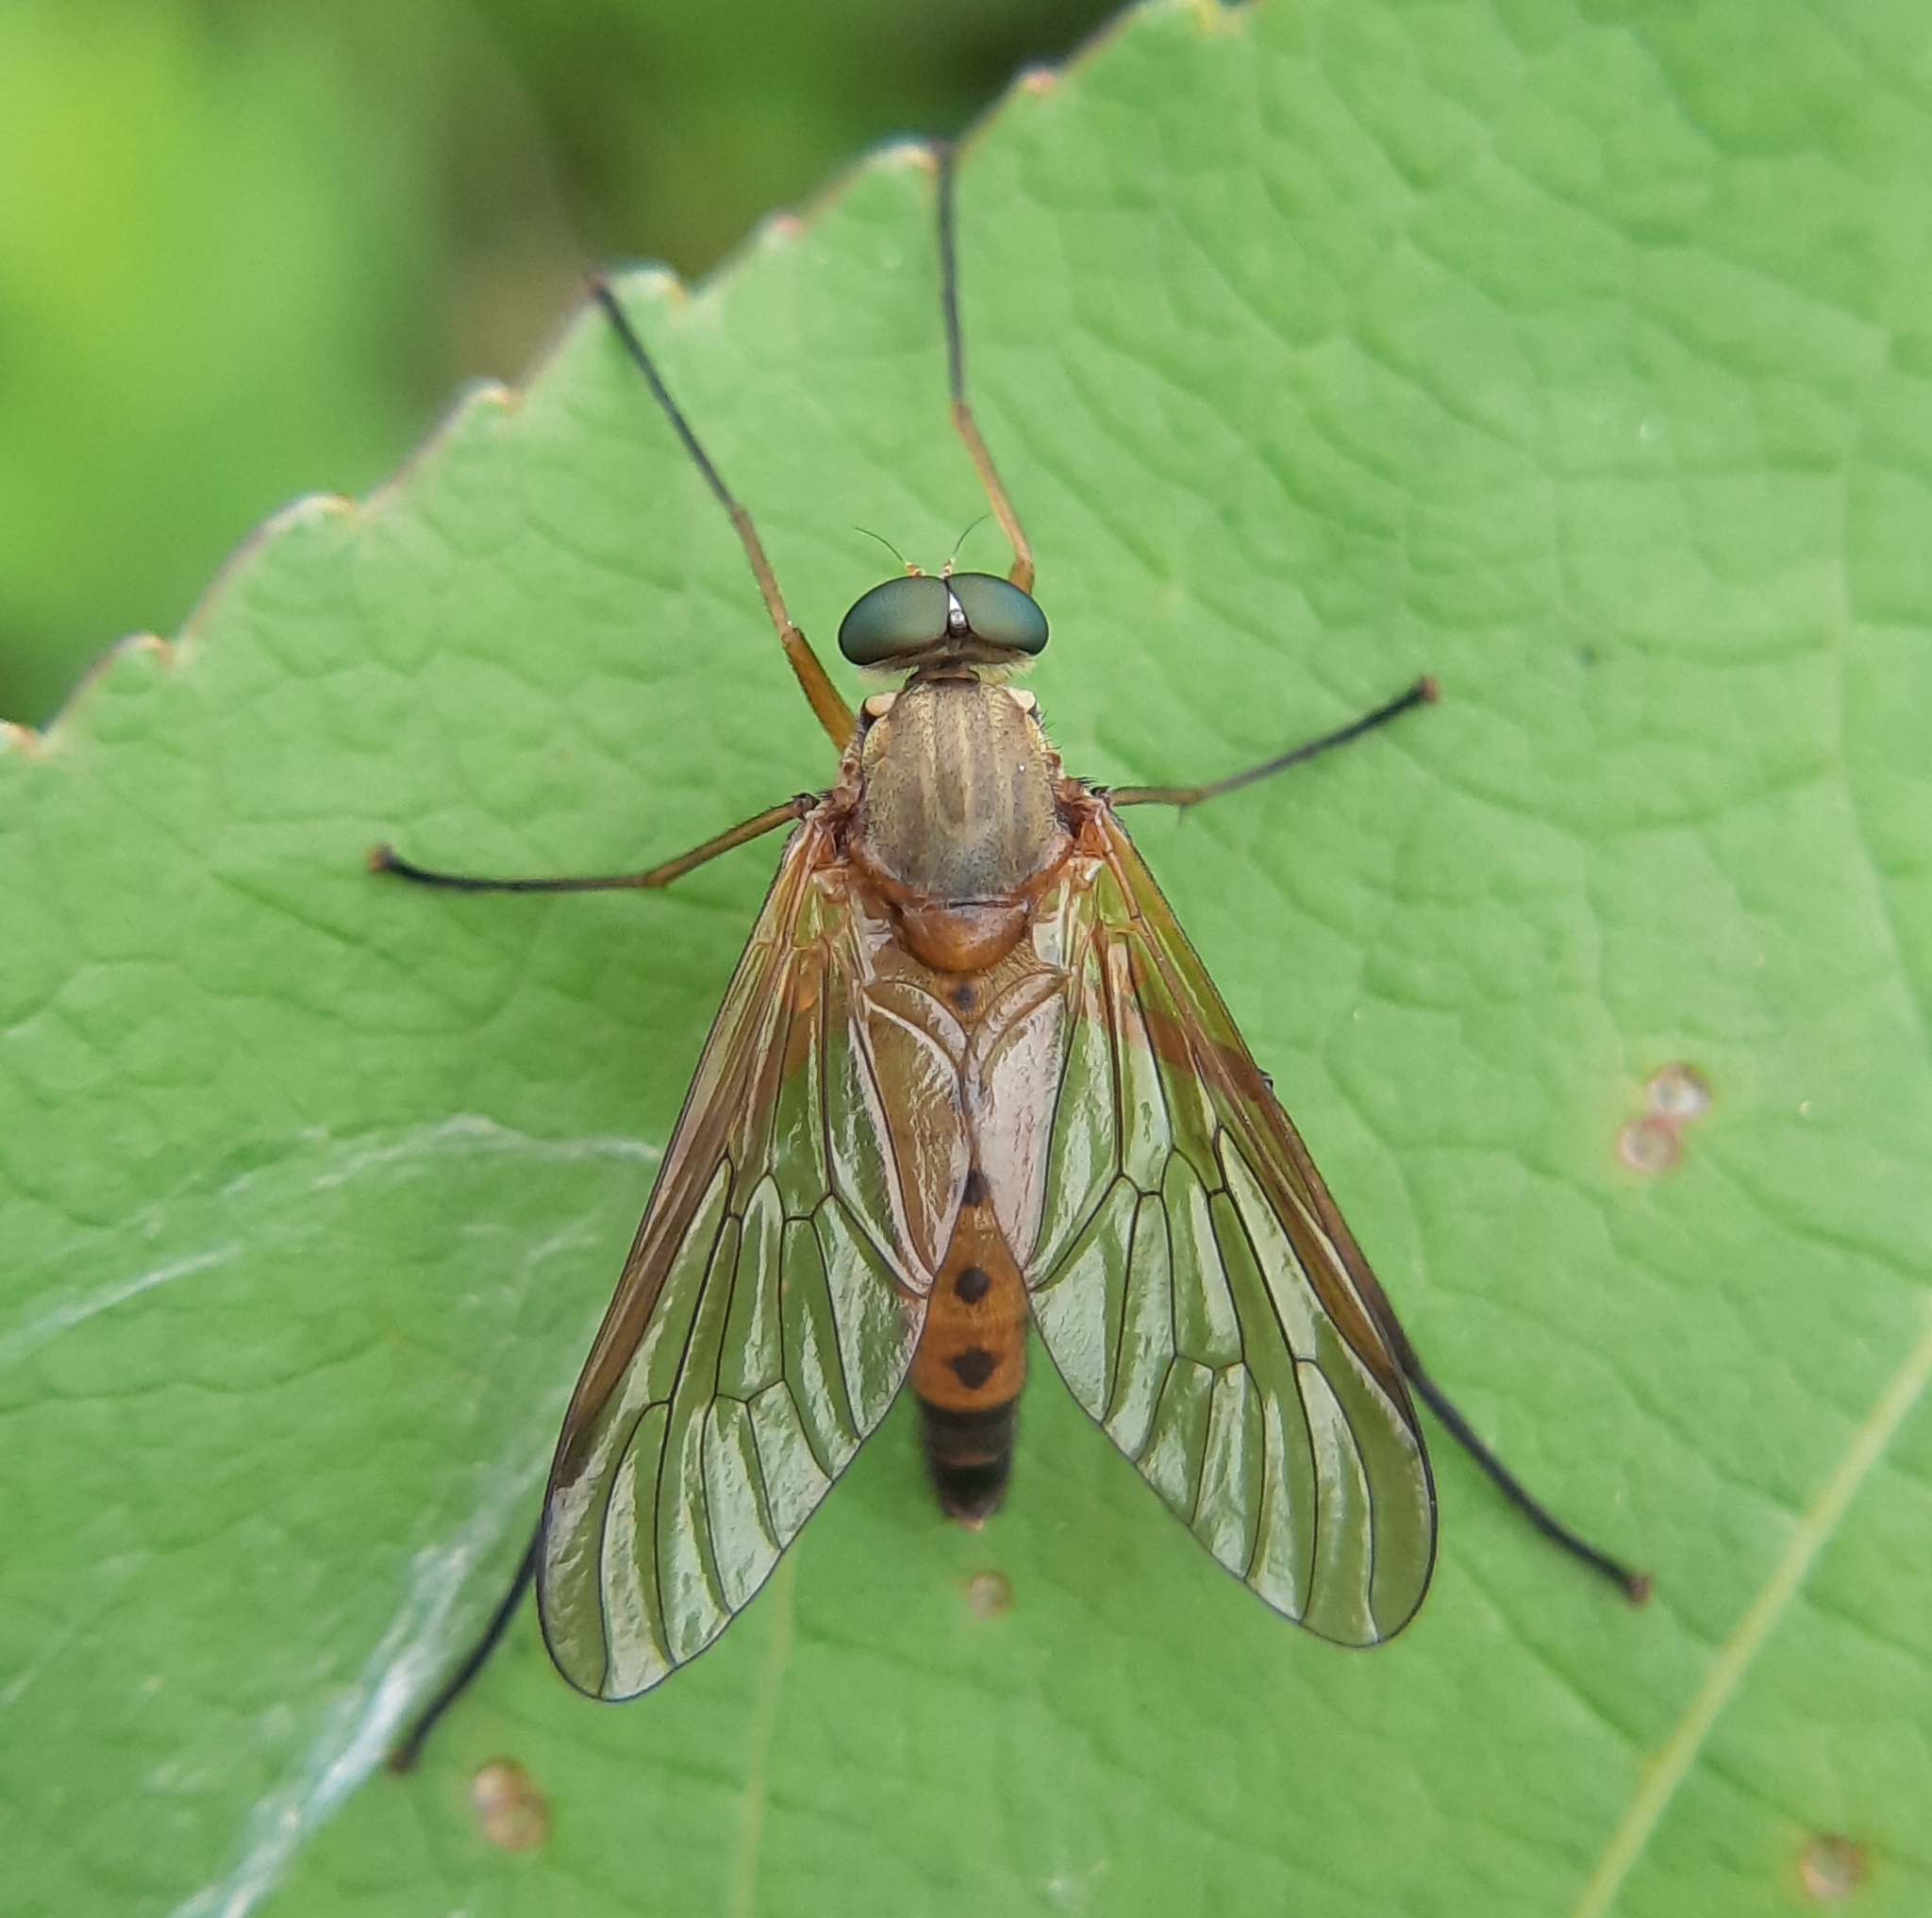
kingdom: Animalia
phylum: Arthropoda
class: Insecta
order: Diptera
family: Rhagionidae
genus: Rhagio
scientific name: Rhagio tringaria
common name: Marsh snipefly
